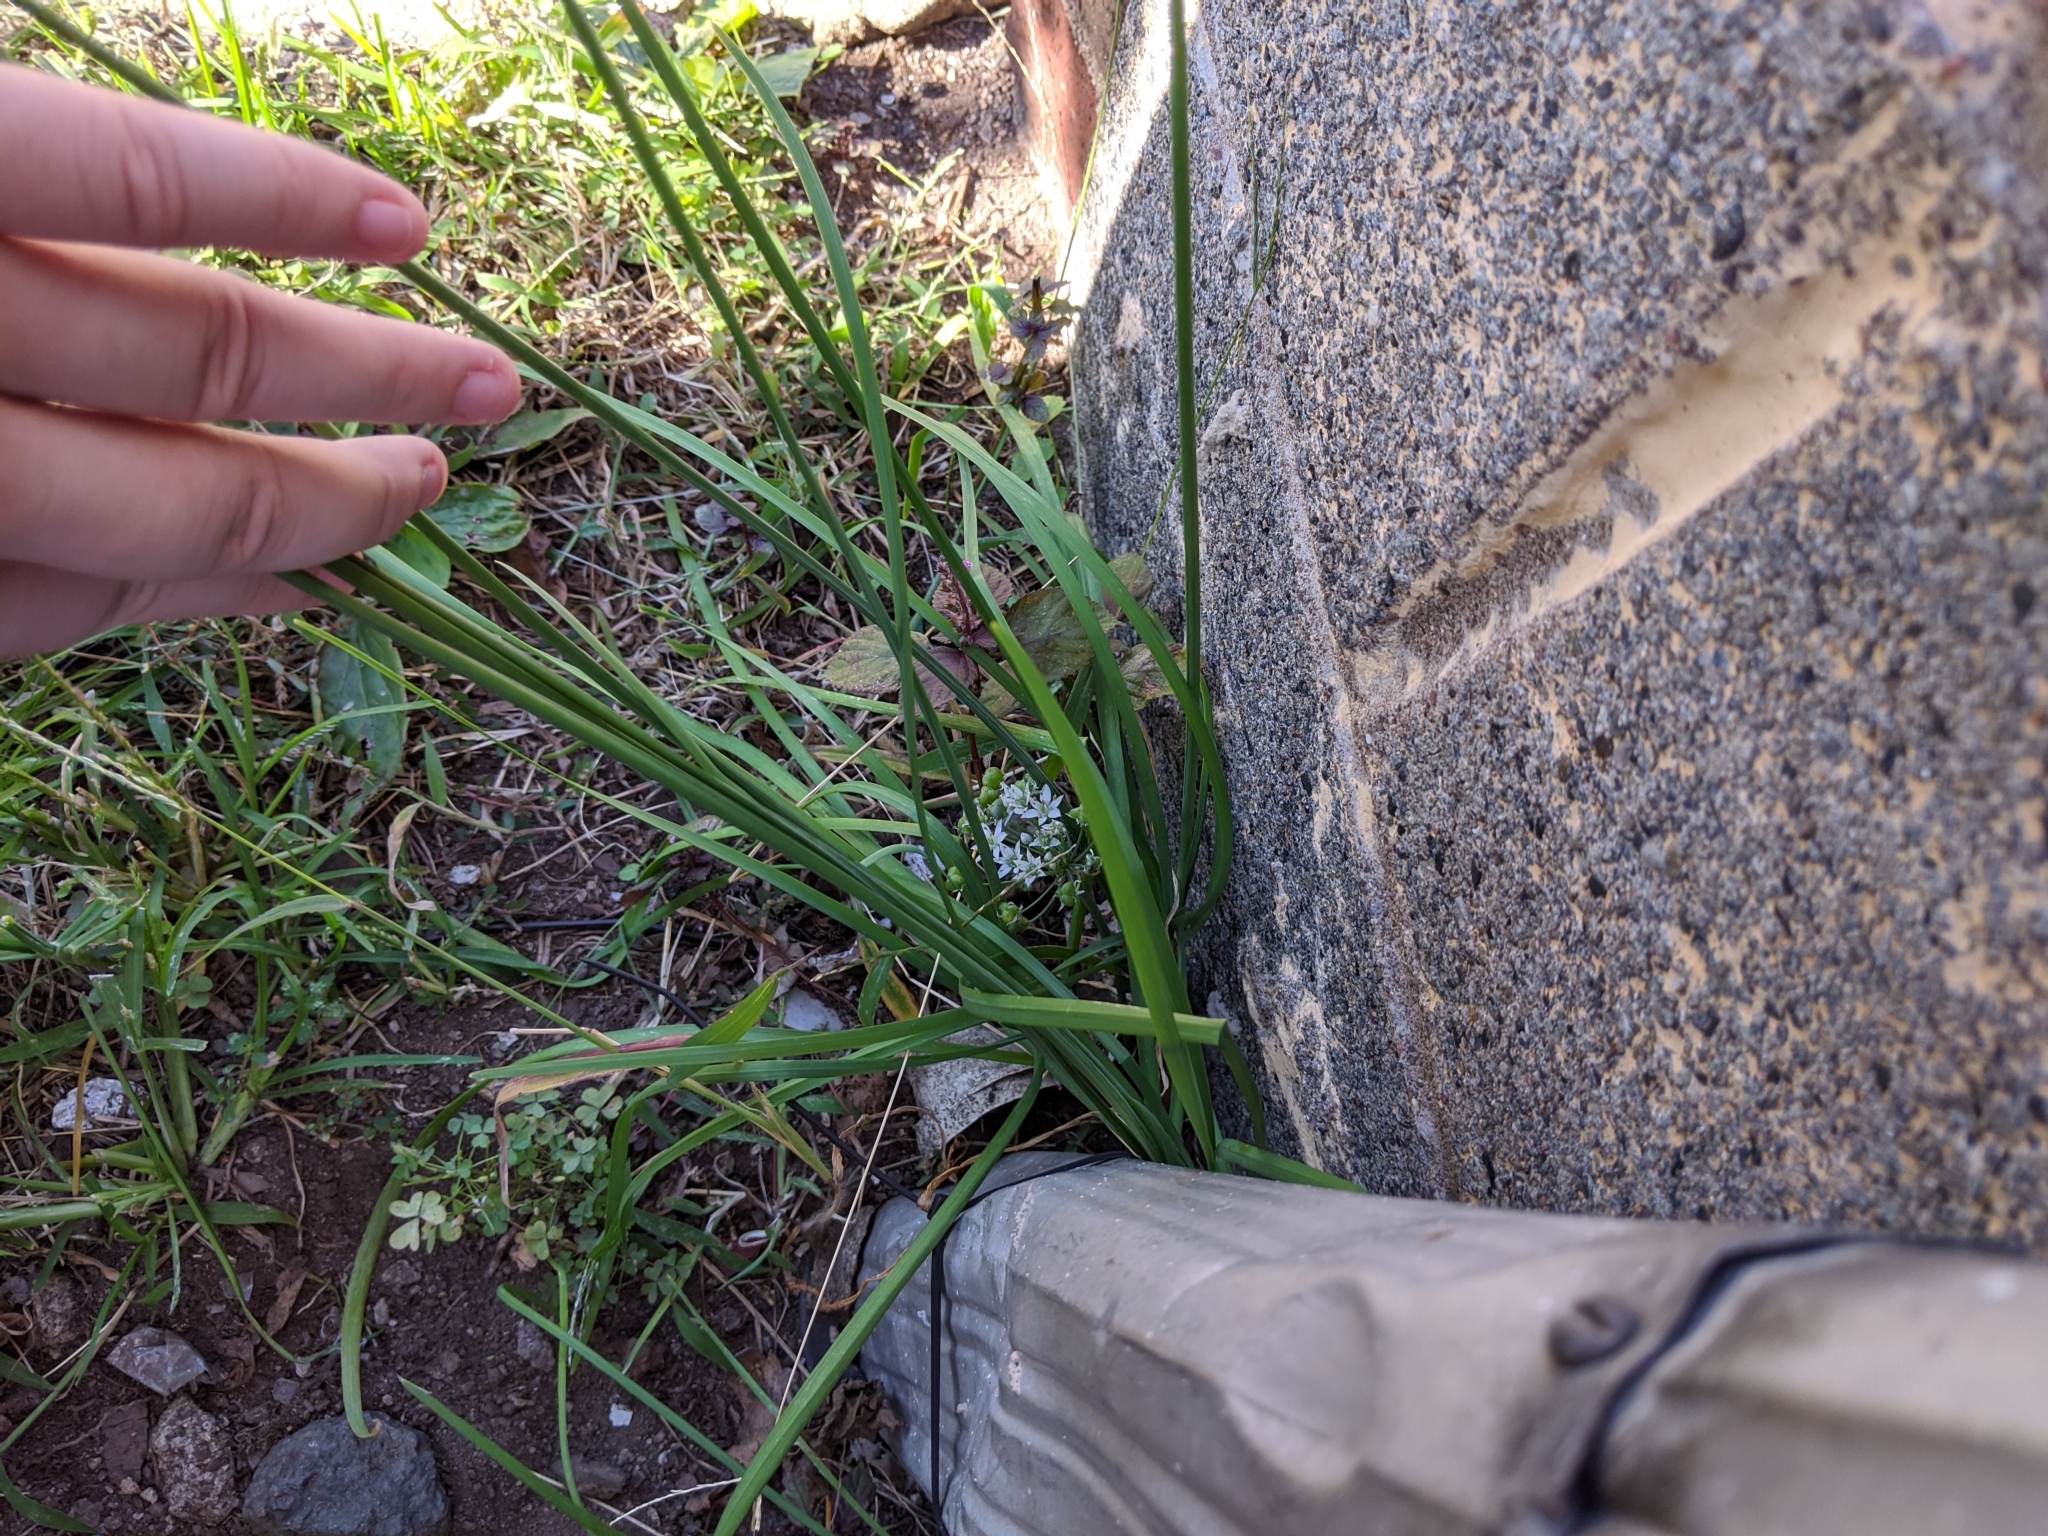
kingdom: Plantae
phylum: Tracheophyta
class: Liliopsida
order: Asparagales
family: Amaryllidaceae
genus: Allium
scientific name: Allium tuberosum
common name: Chinese chives
